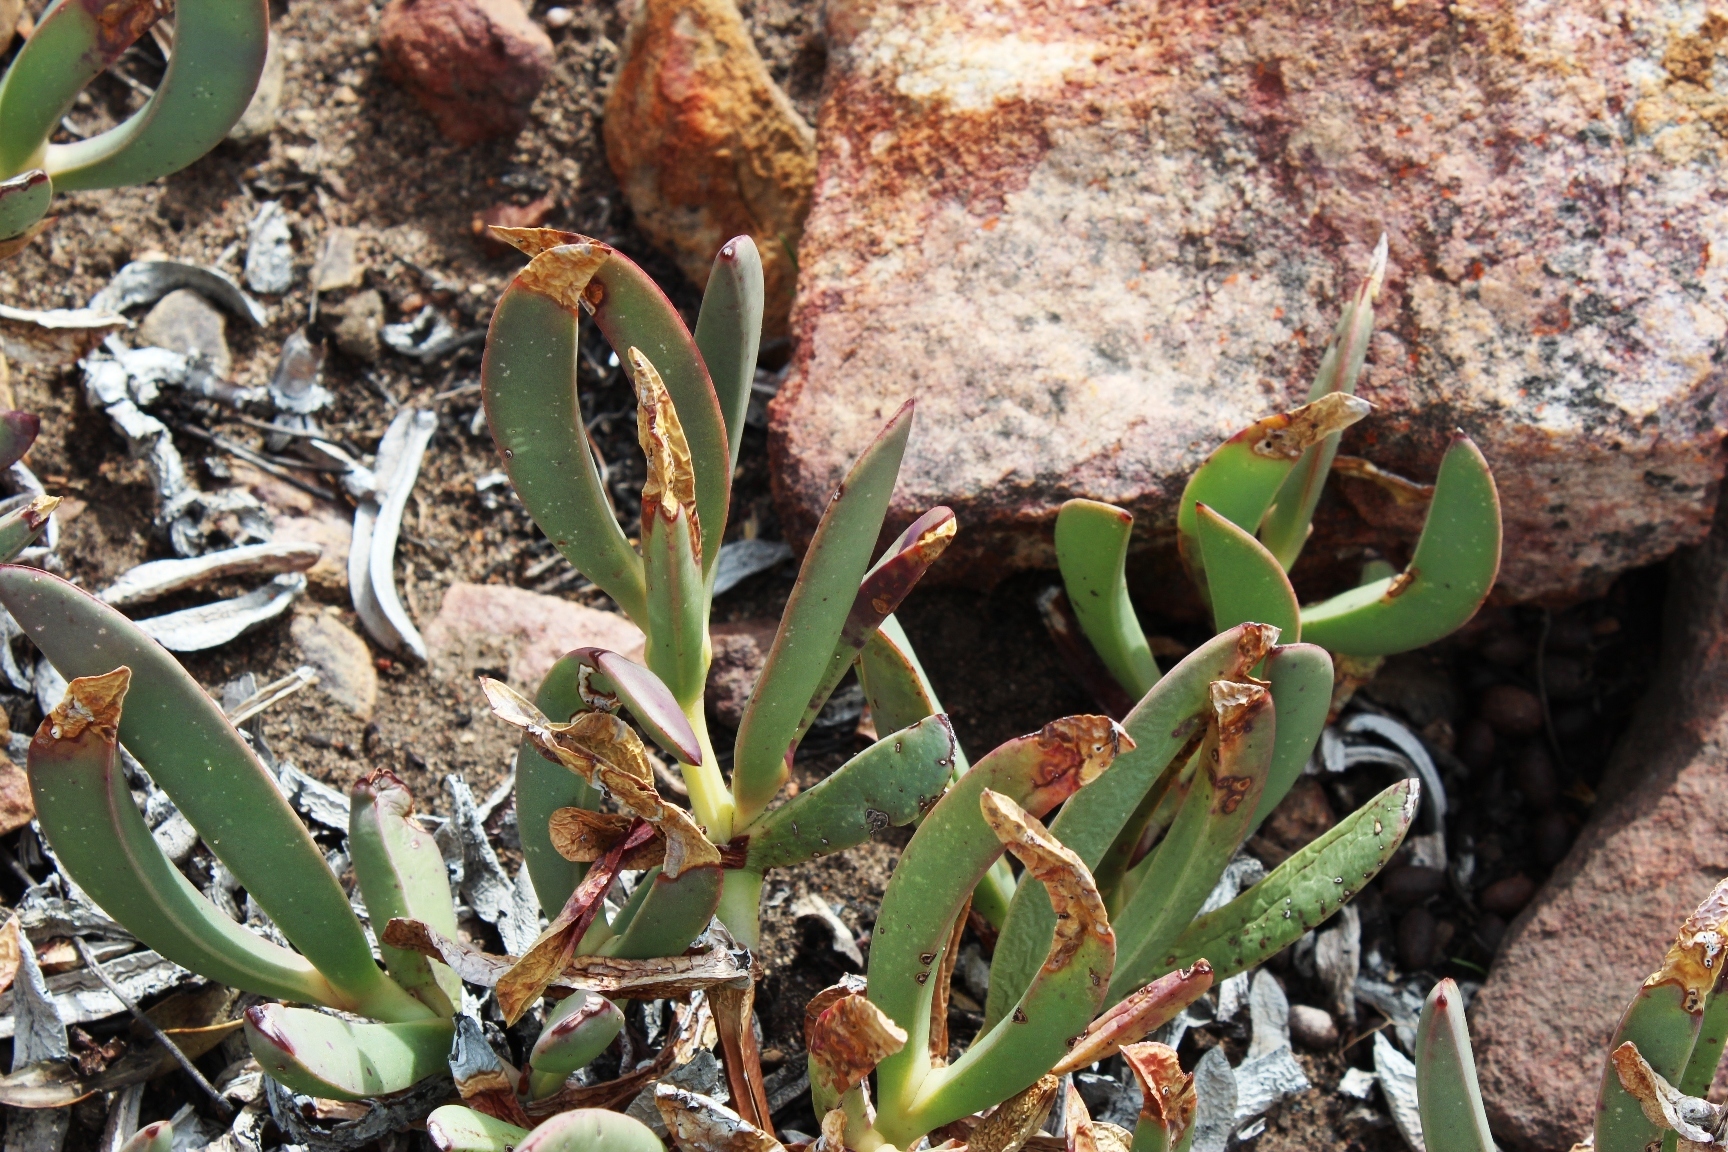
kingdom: Plantae
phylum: Tracheophyta
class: Magnoliopsida
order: Caryophyllales
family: Aizoaceae
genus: Carpobrotus
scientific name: Carpobrotus mellei
